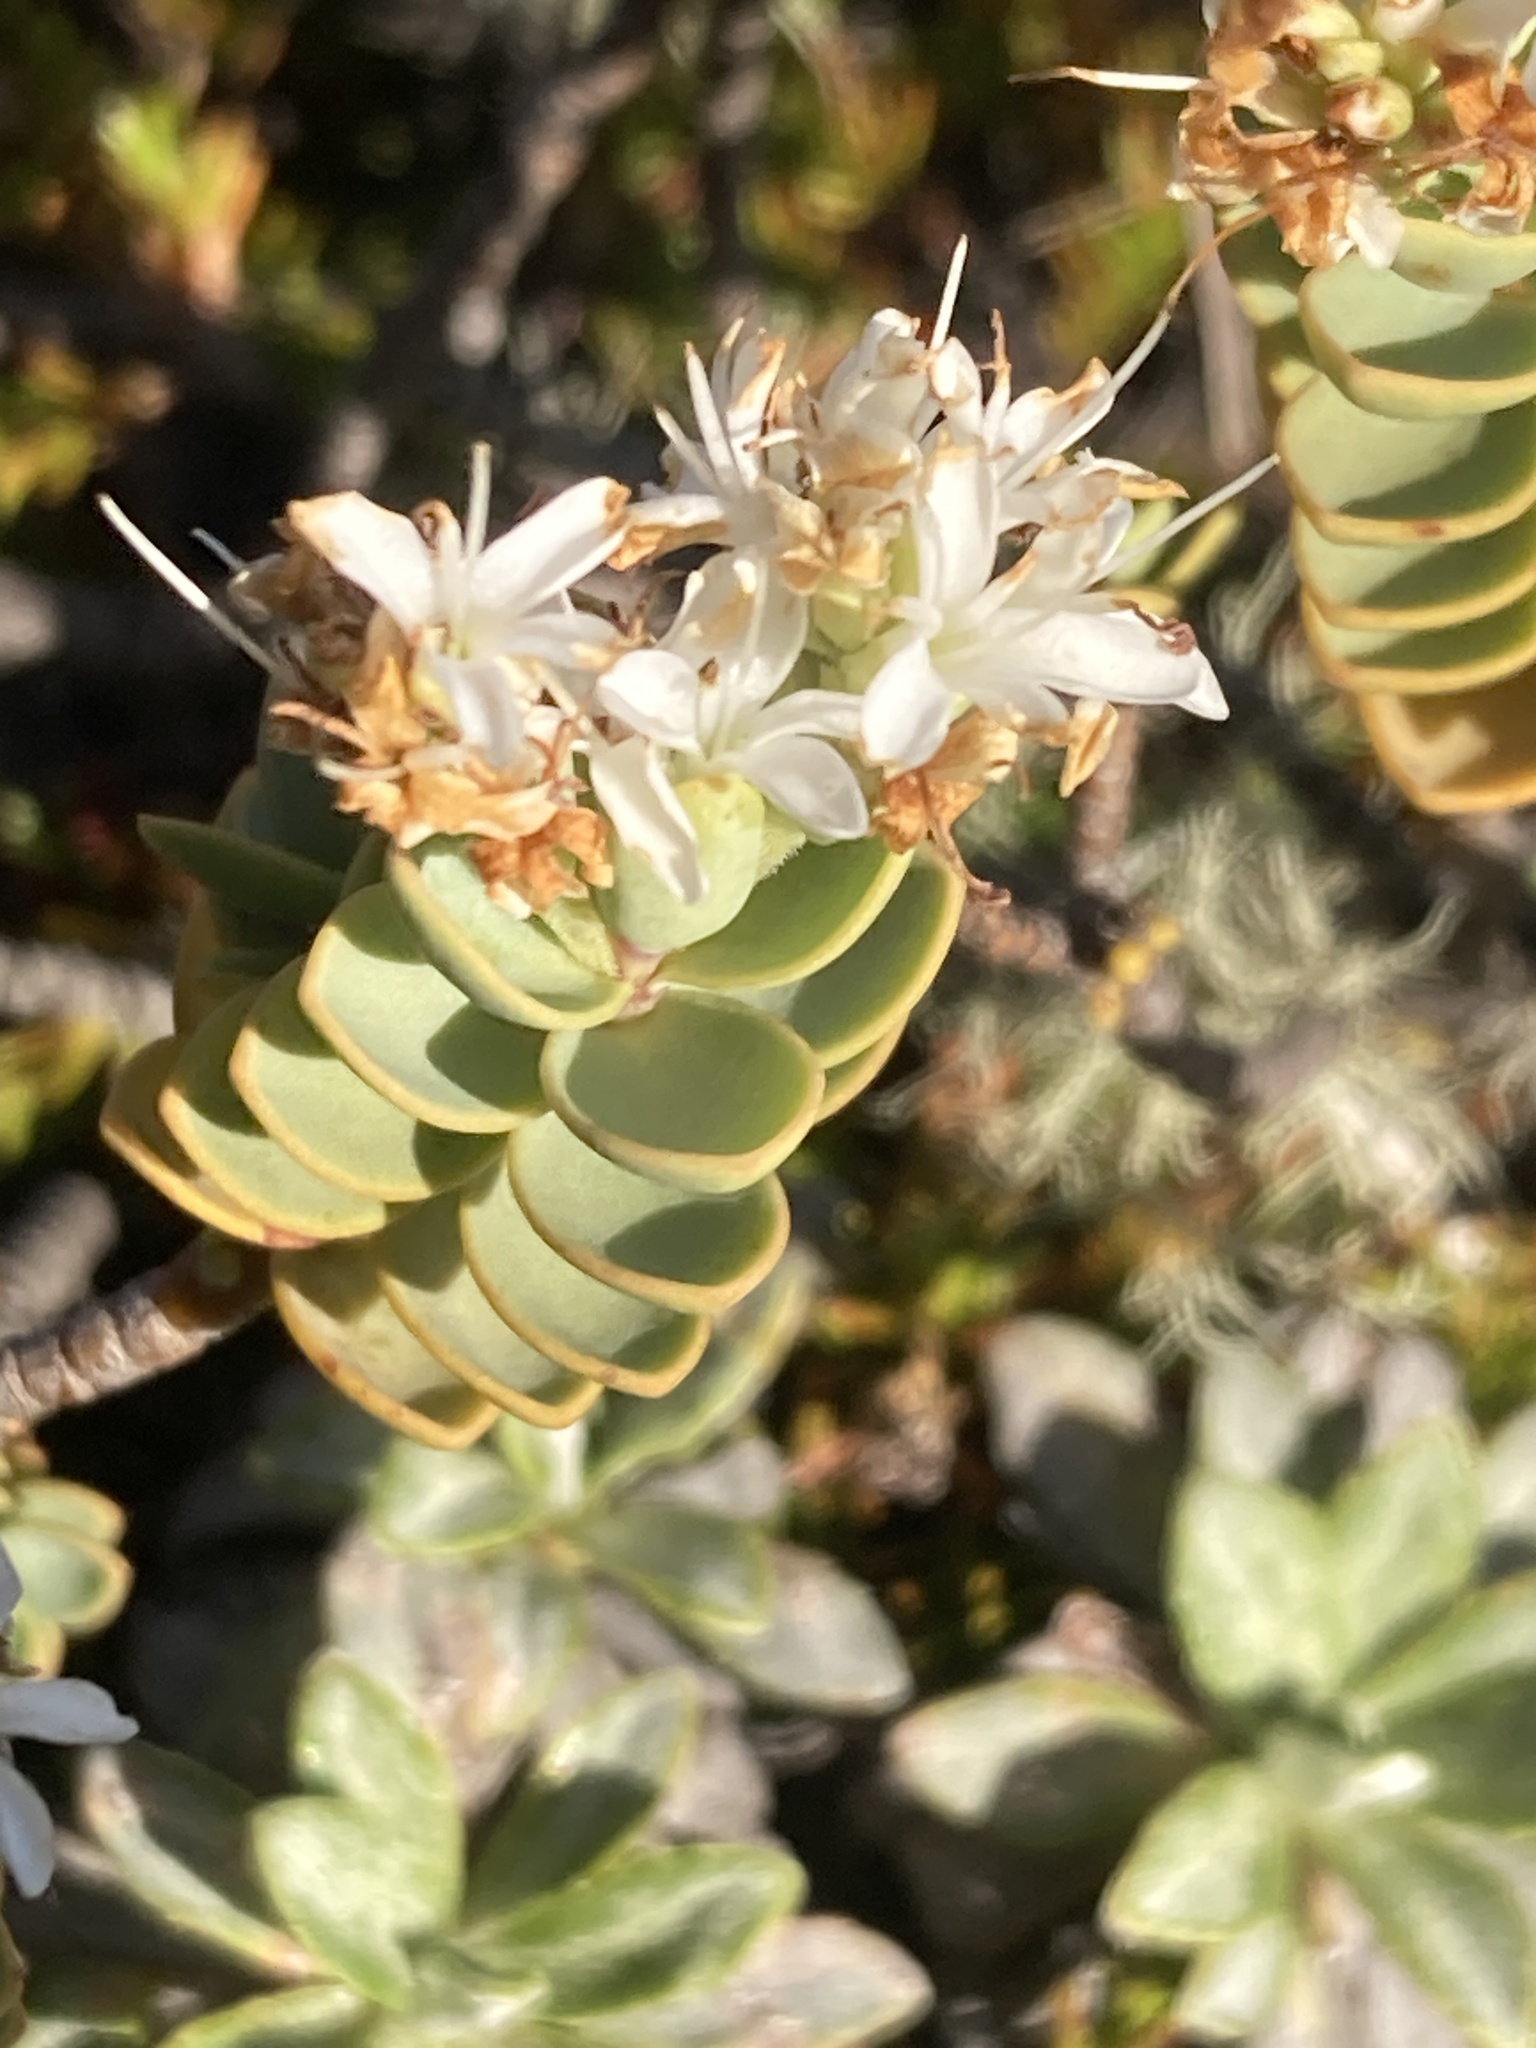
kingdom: Plantae
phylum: Tracheophyta
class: Magnoliopsida
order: Lamiales
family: Plantaginaceae
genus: Veronica
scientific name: Veronica pinguifolia
